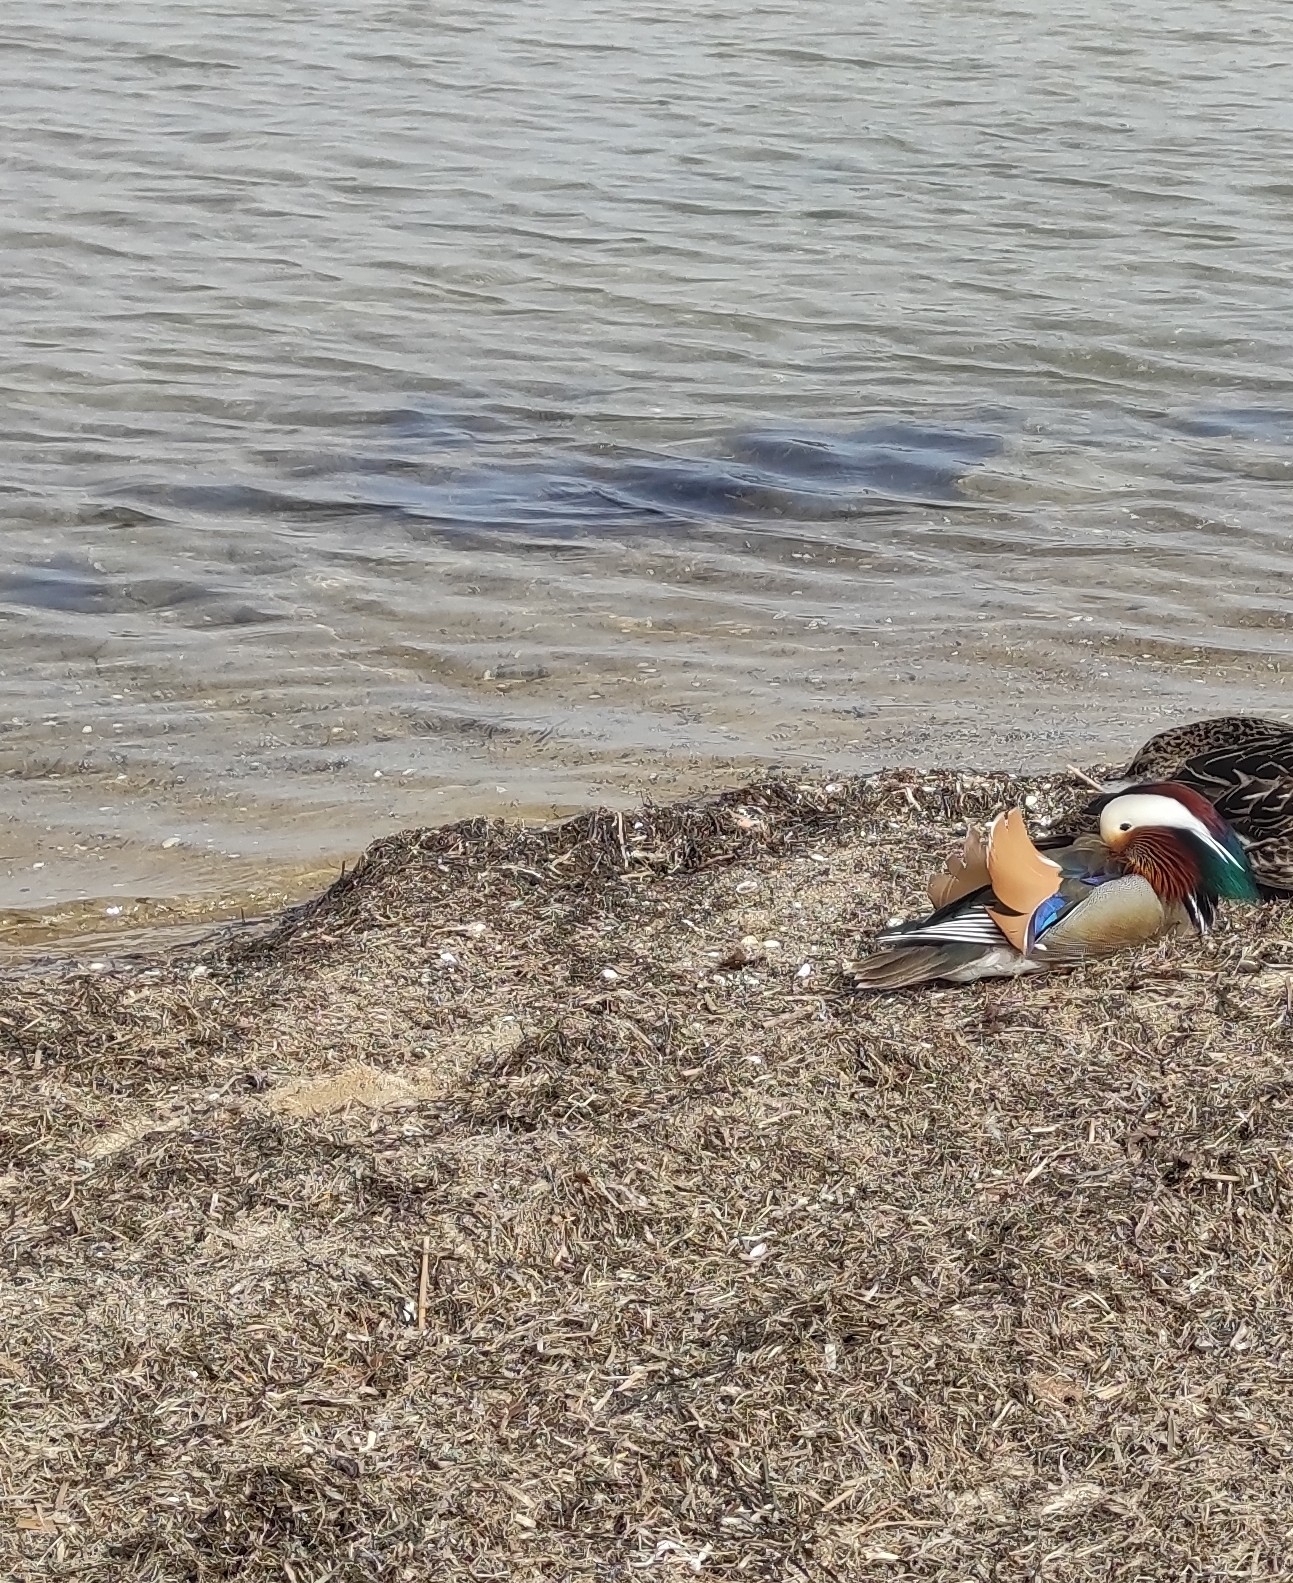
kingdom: Animalia
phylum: Chordata
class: Aves
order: Anseriformes
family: Anatidae
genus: Aix
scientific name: Aix galericulata
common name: Mandarin duck
